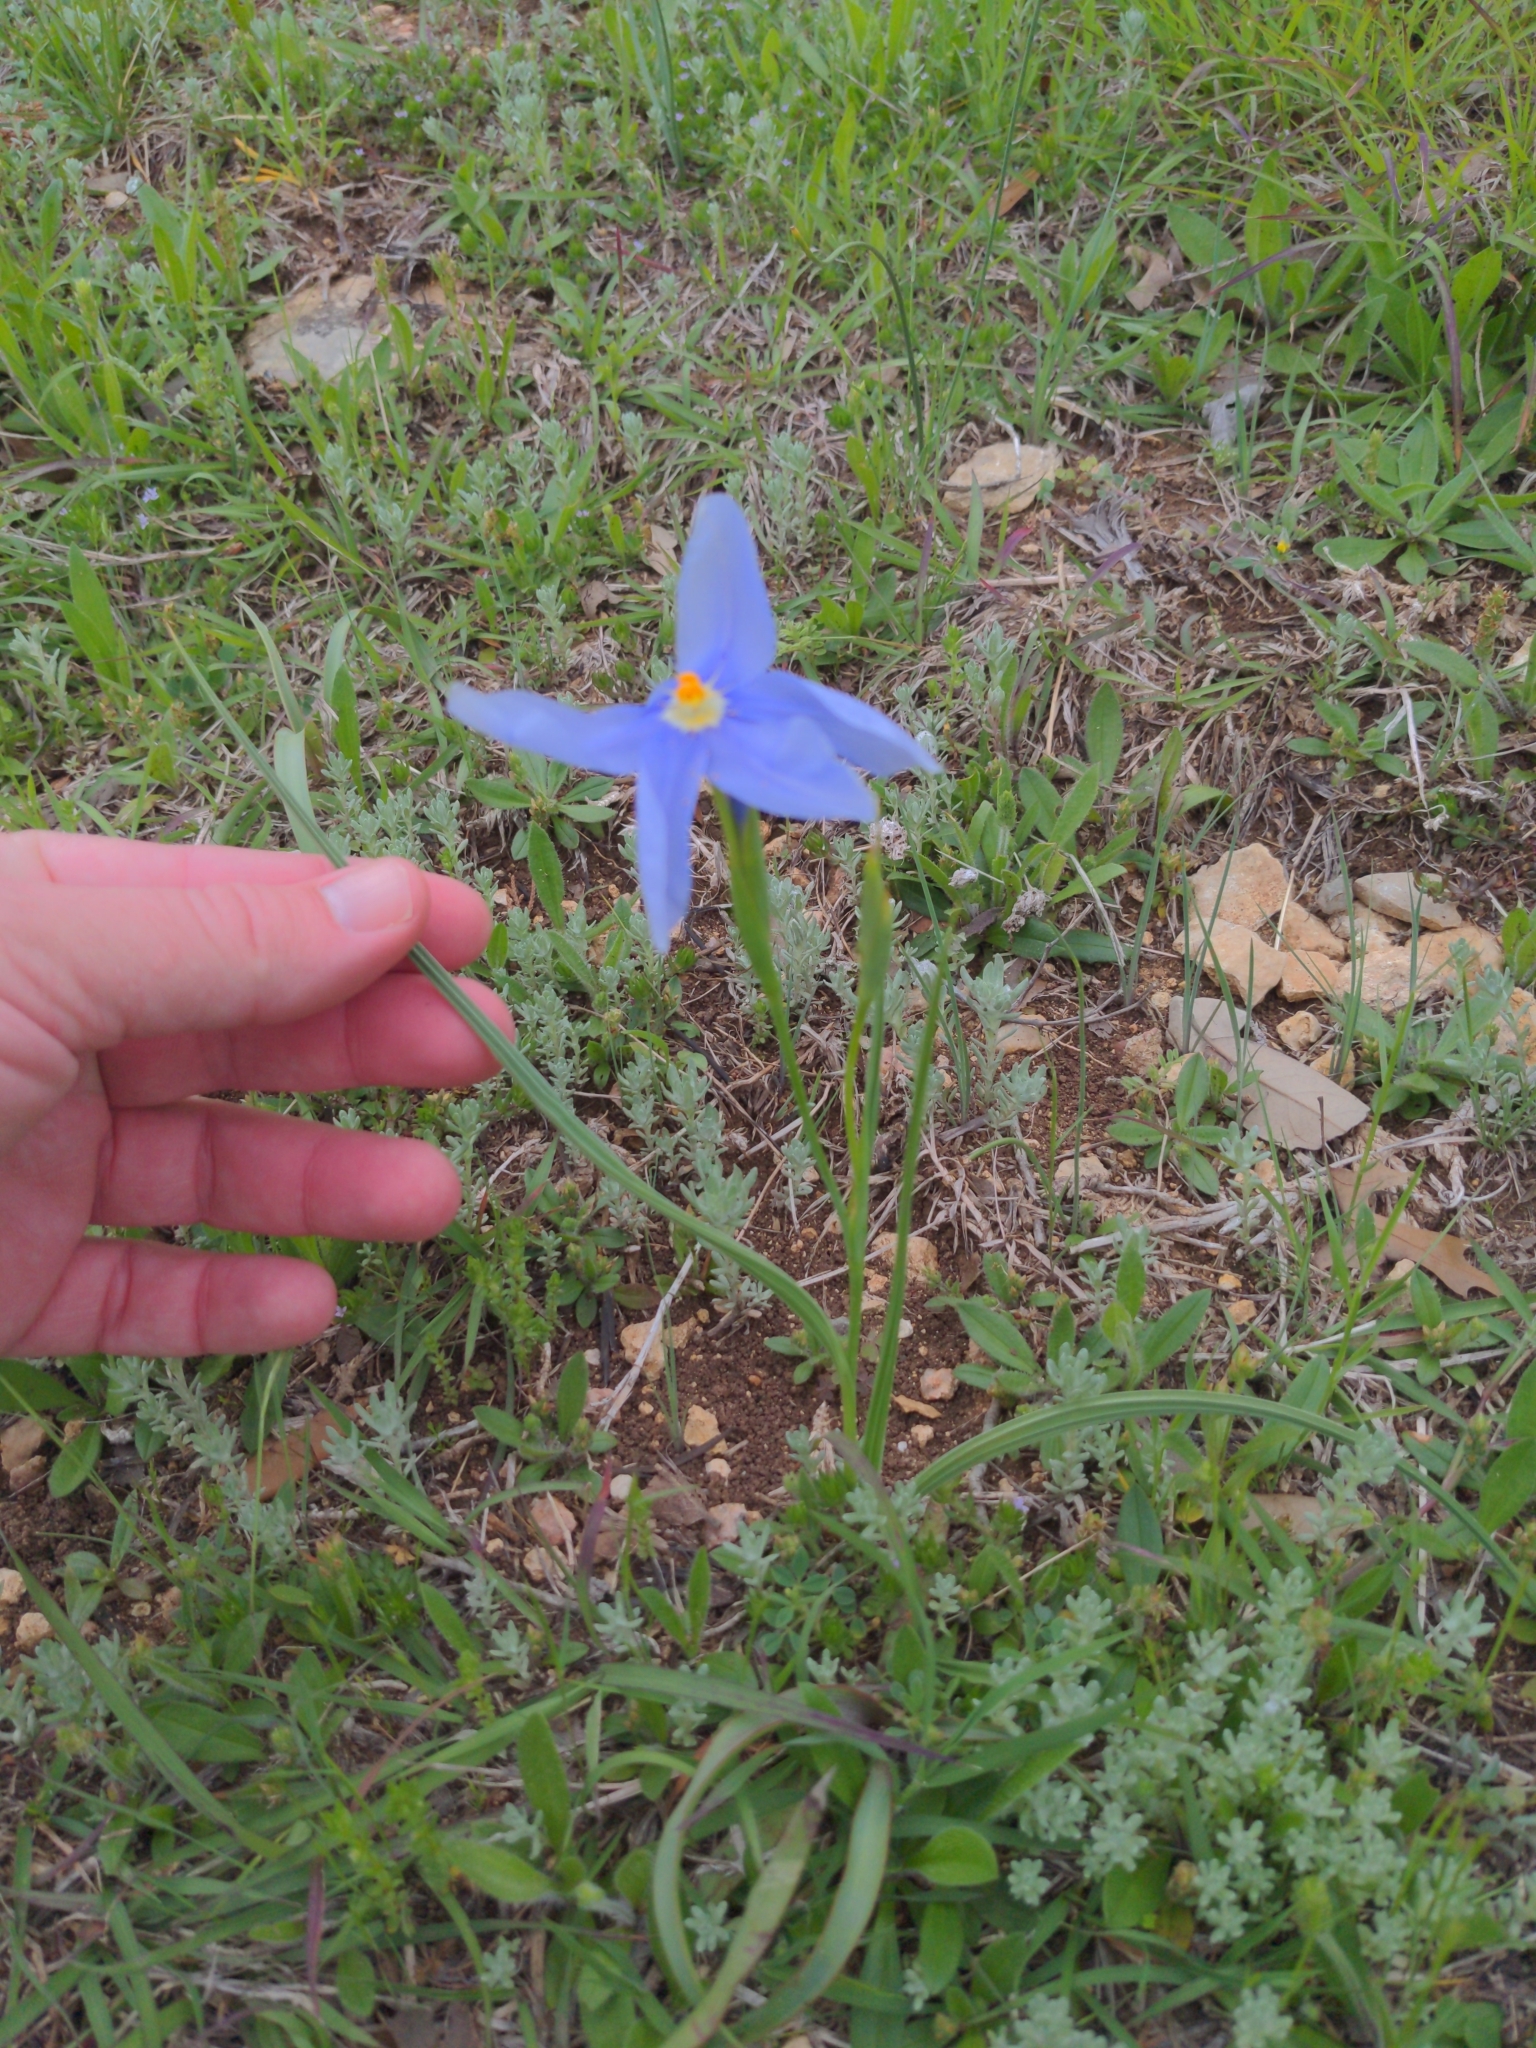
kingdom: Plantae
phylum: Tracheophyta
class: Liliopsida
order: Asparagales
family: Iridaceae
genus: Nemastylis
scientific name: Nemastylis geminiflora
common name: Prairie celestial
